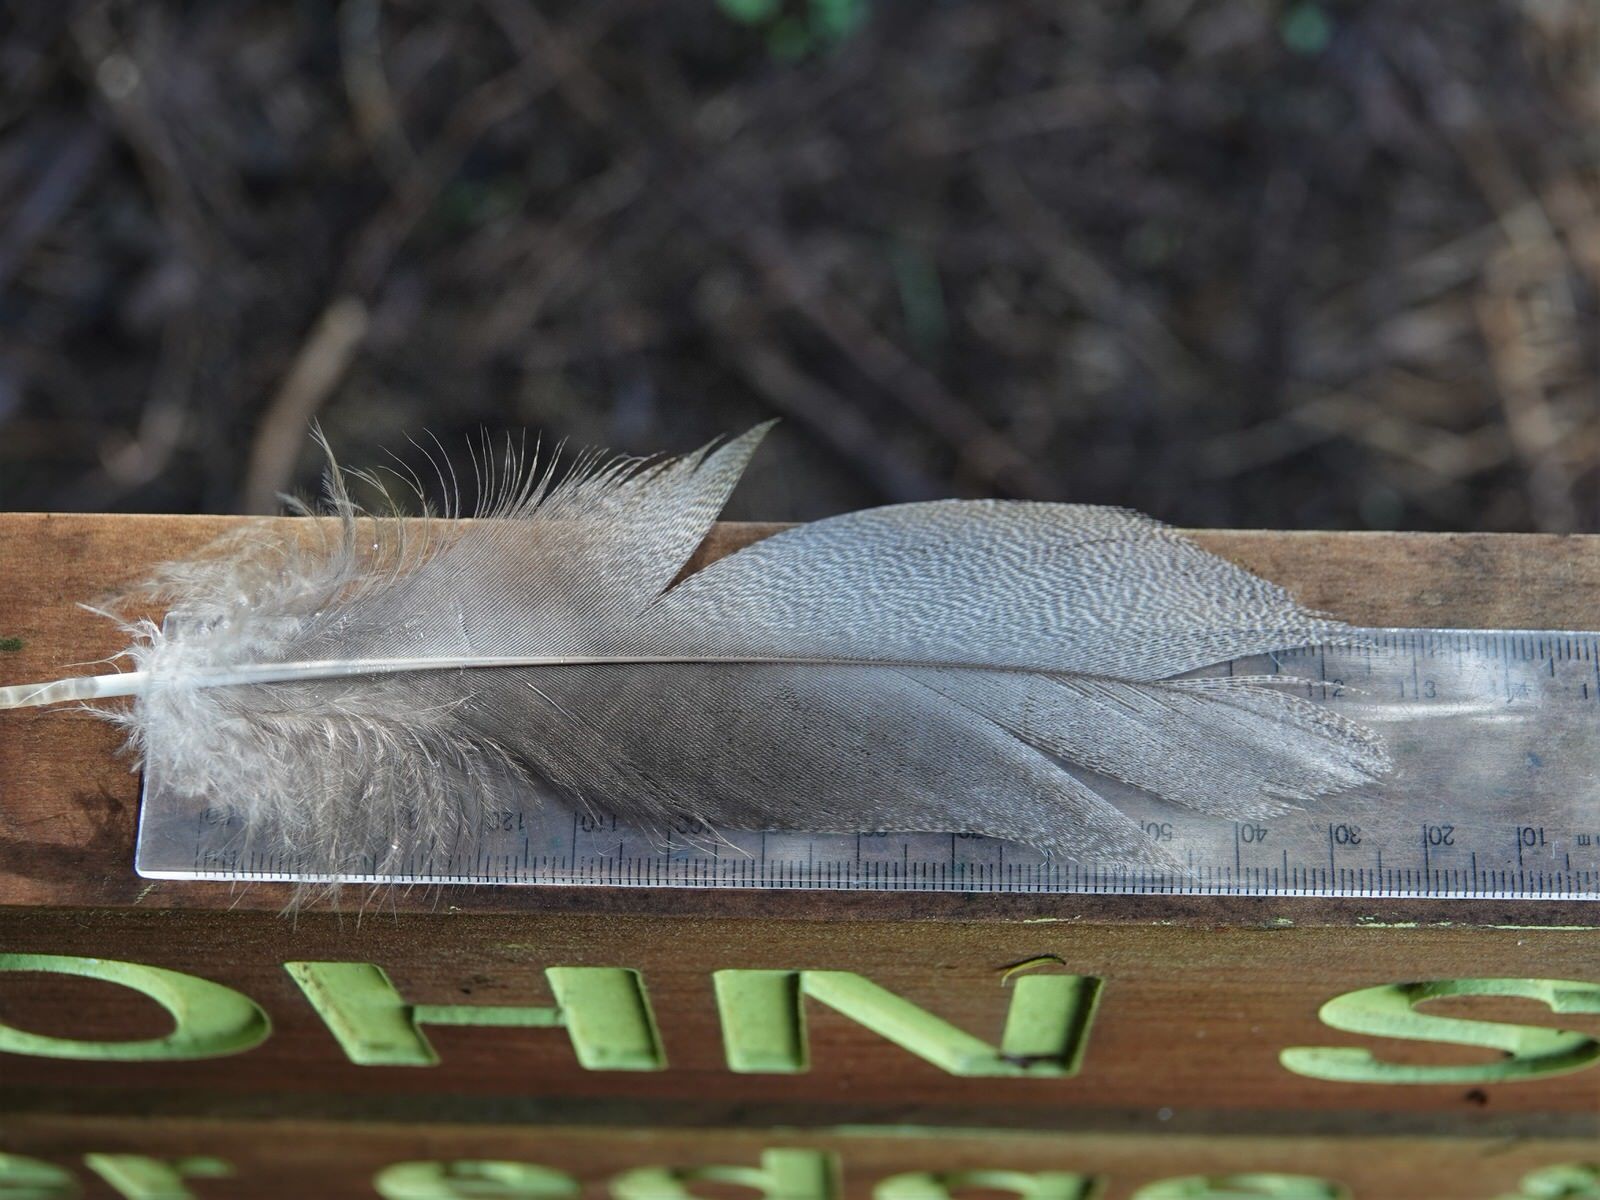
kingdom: Animalia
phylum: Chordata
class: Aves
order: Anseriformes
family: Anatidae
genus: Tadorna
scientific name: Tadorna variegata
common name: Paradise shelduck
